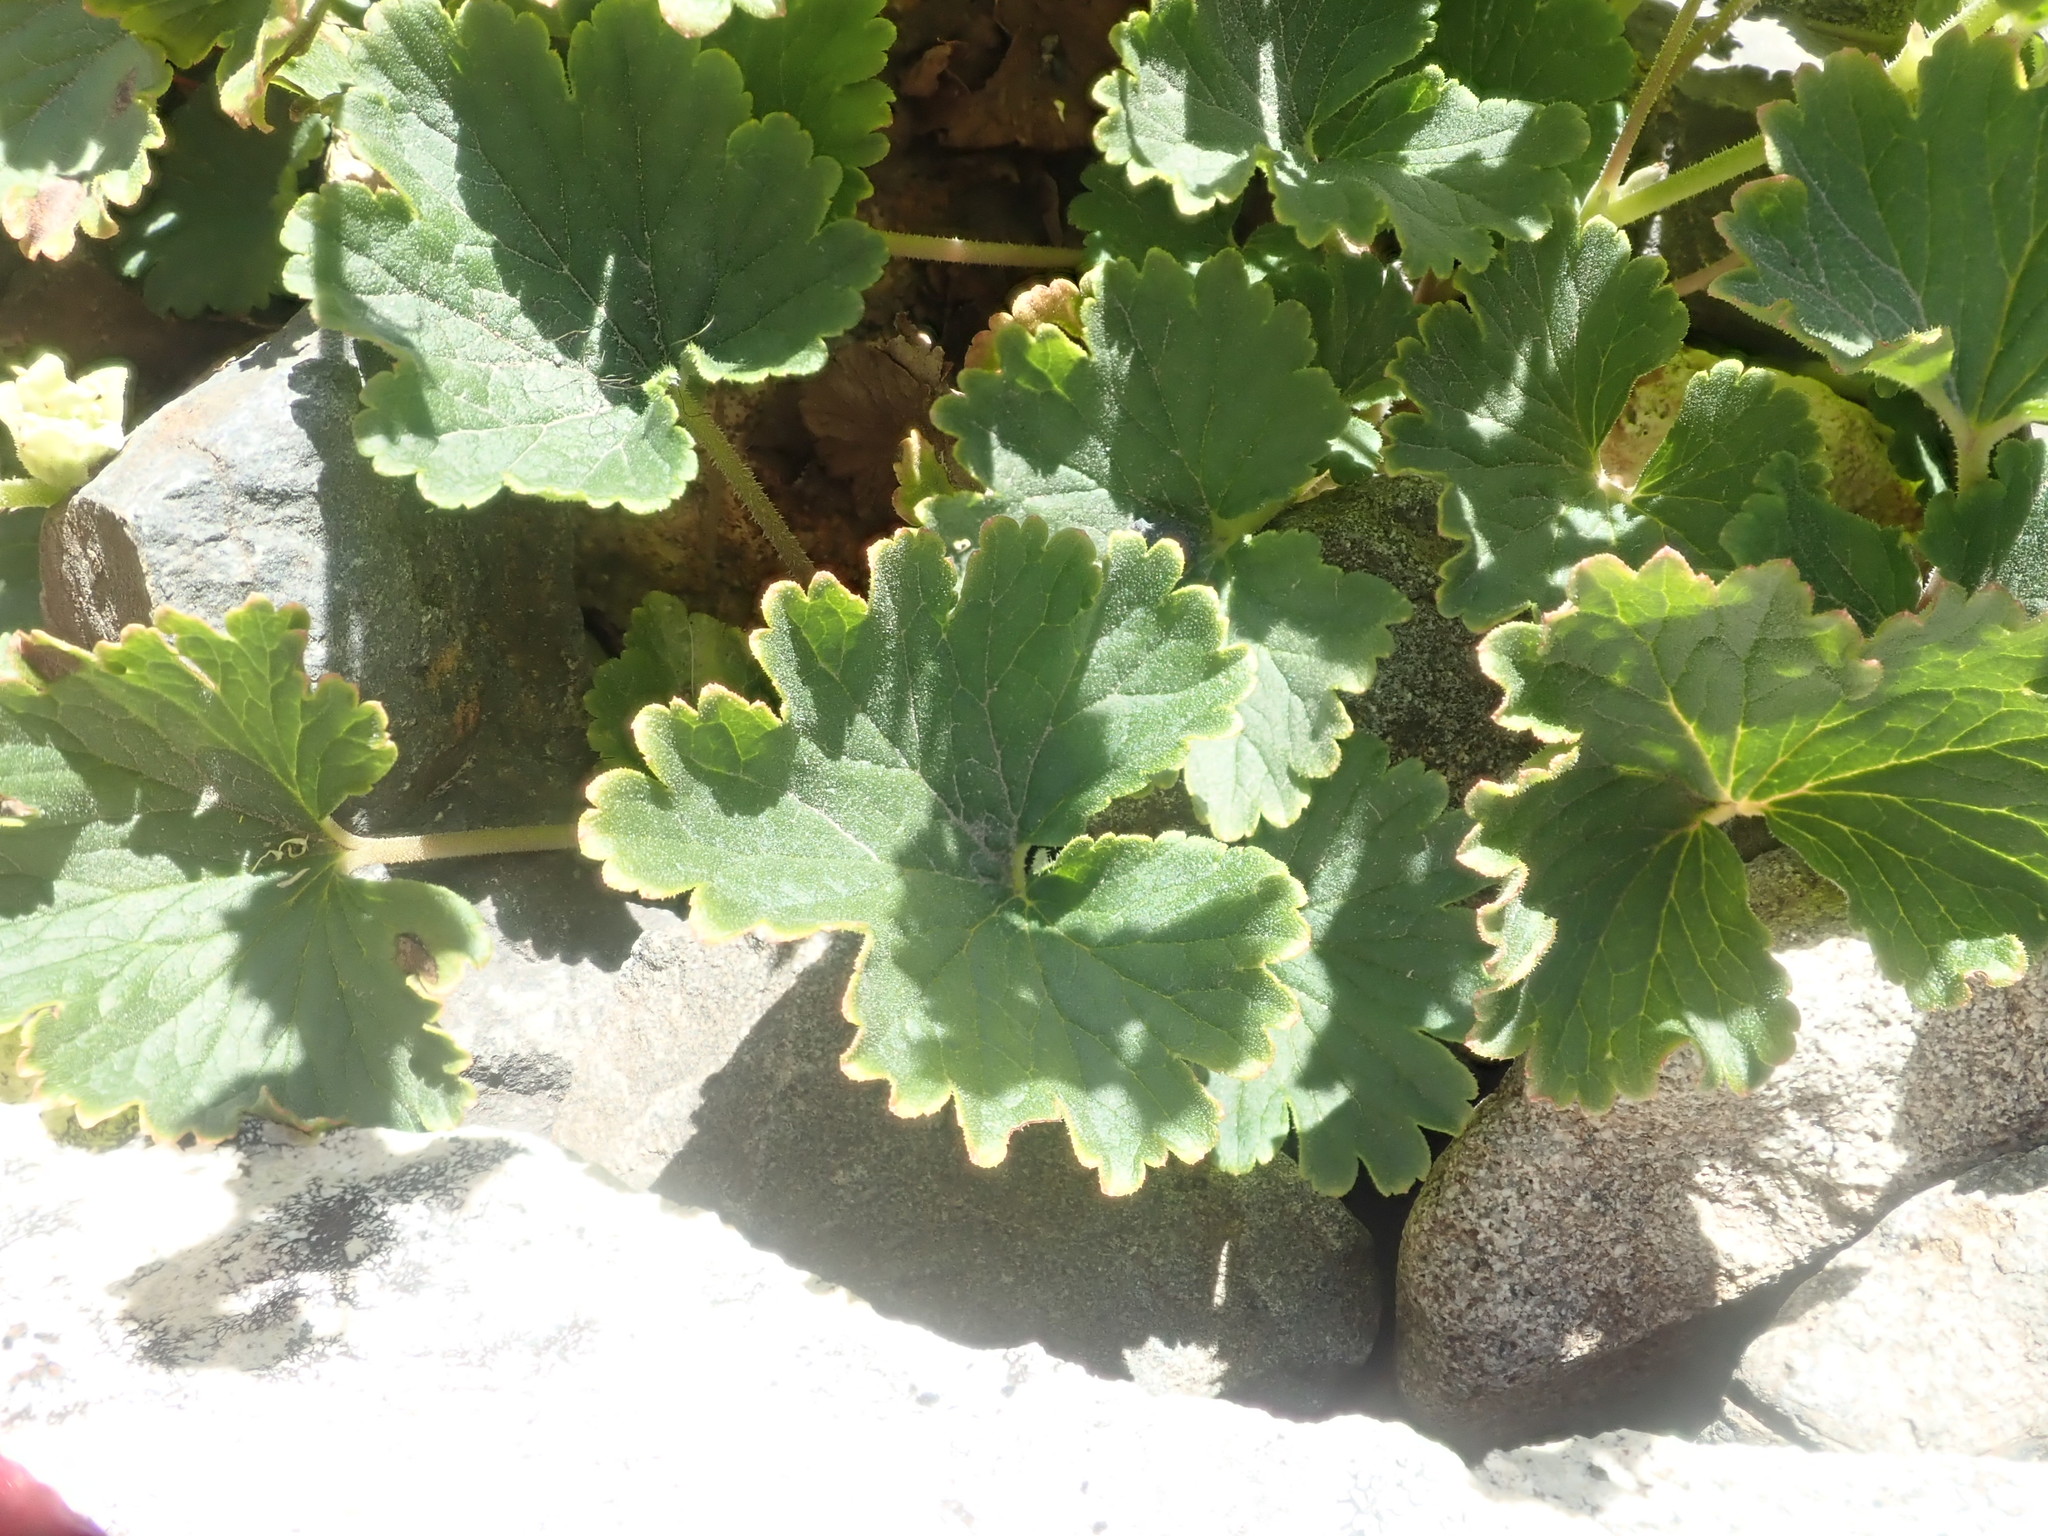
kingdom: Plantae
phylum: Tracheophyta
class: Magnoliopsida
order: Saxifragales
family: Saxifragaceae
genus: Elmera
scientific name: Elmera racemosa
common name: Elmera
